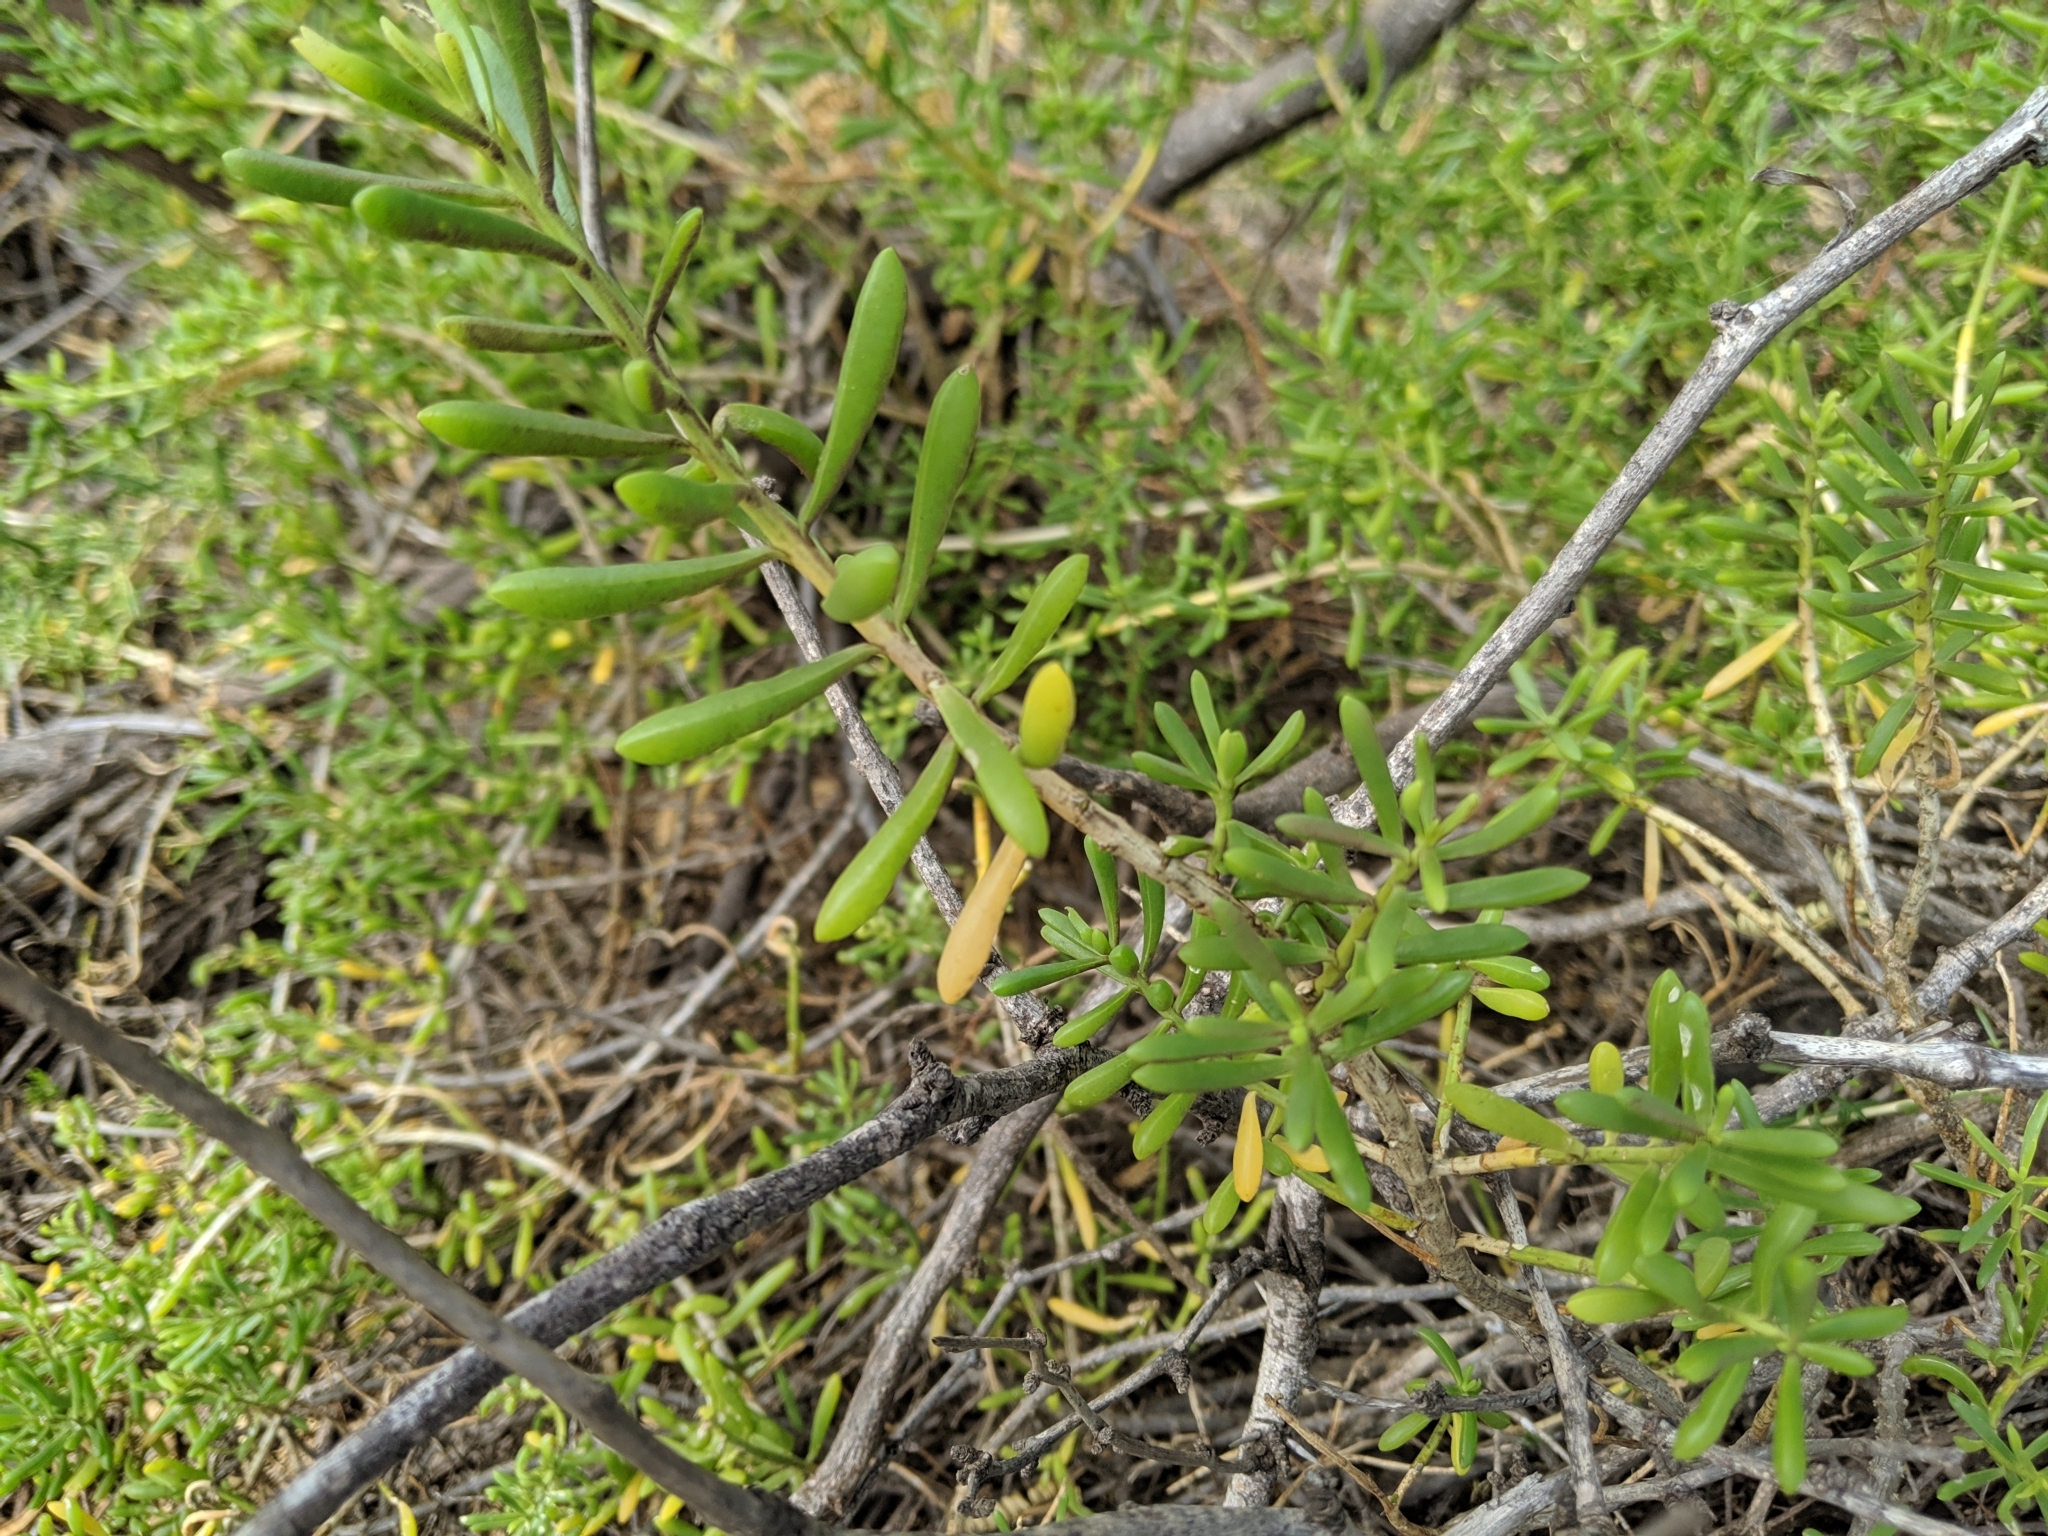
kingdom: Plantae
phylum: Tracheophyta
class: Magnoliopsida
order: Brassicales
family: Bataceae
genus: Batis
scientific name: Batis maritima
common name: Turtleweed
